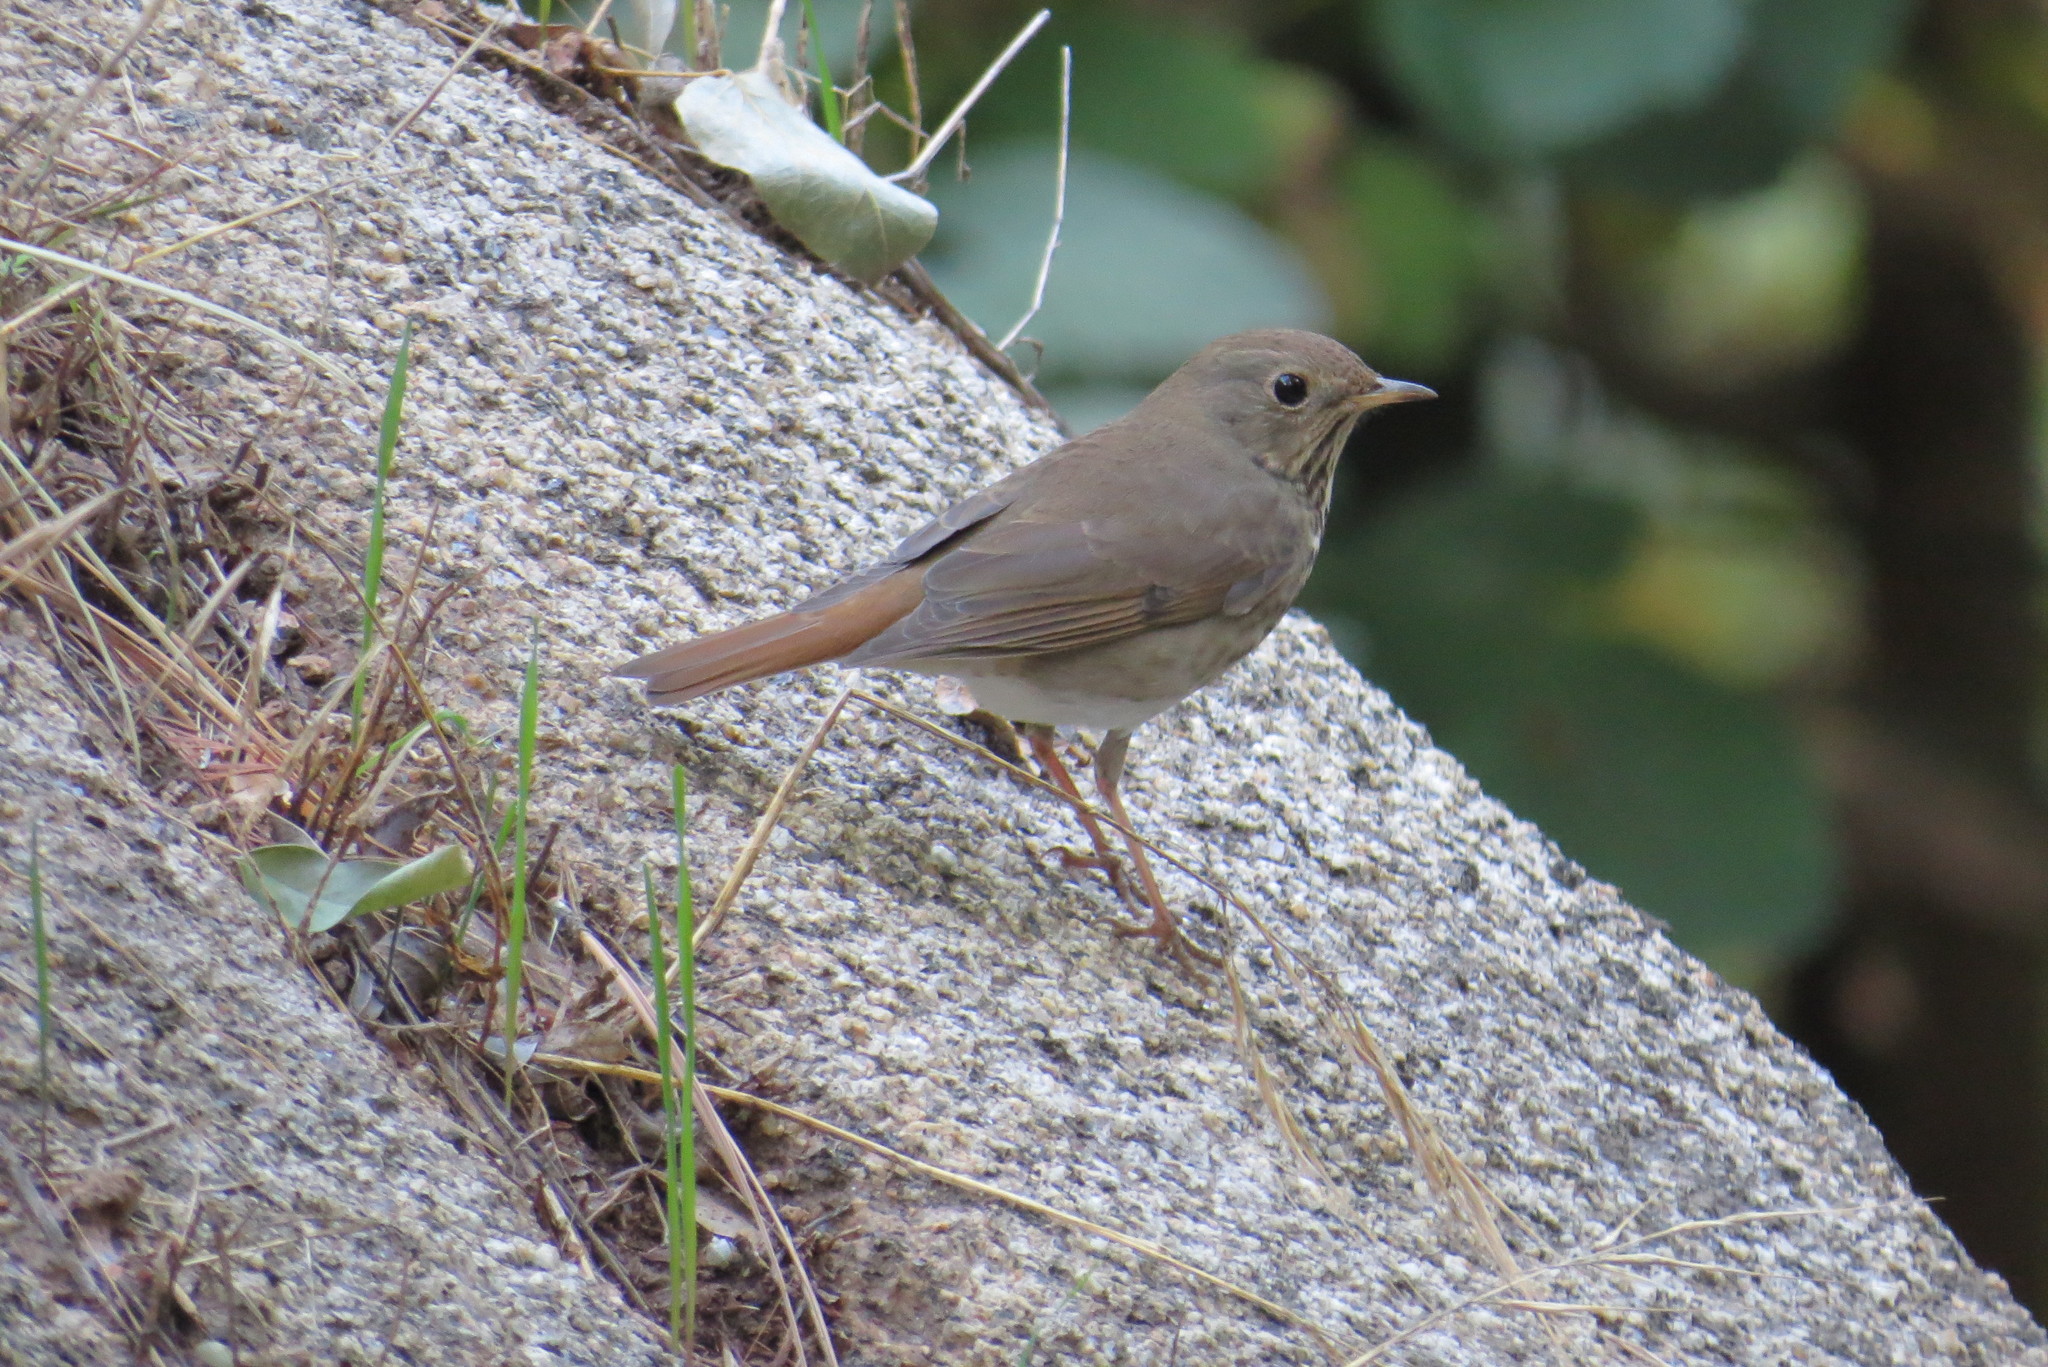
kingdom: Animalia
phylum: Chordata
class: Aves
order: Passeriformes
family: Turdidae
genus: Catharus
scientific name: Catharus guttatus
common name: Hermit thrush
